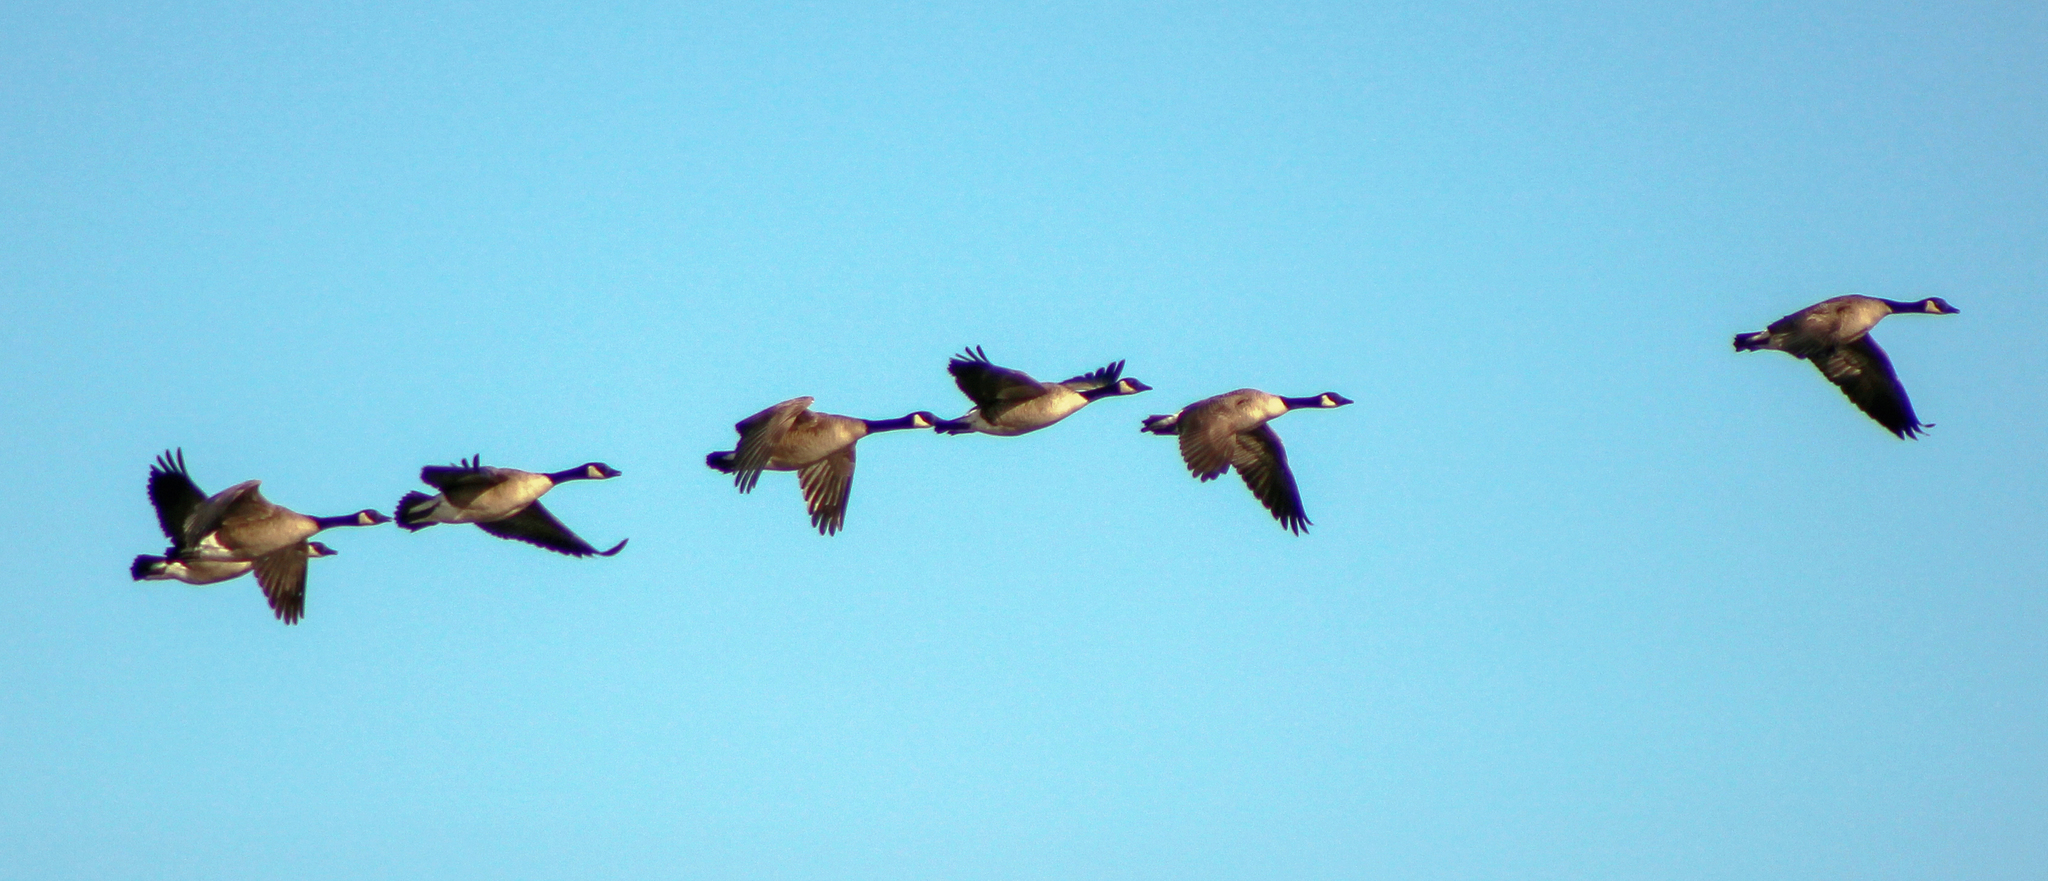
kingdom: Animalia
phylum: Chordata
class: Aves
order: Anseriformes
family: Anatidae
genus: Branta
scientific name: Branta canadensis
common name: Canada goose
